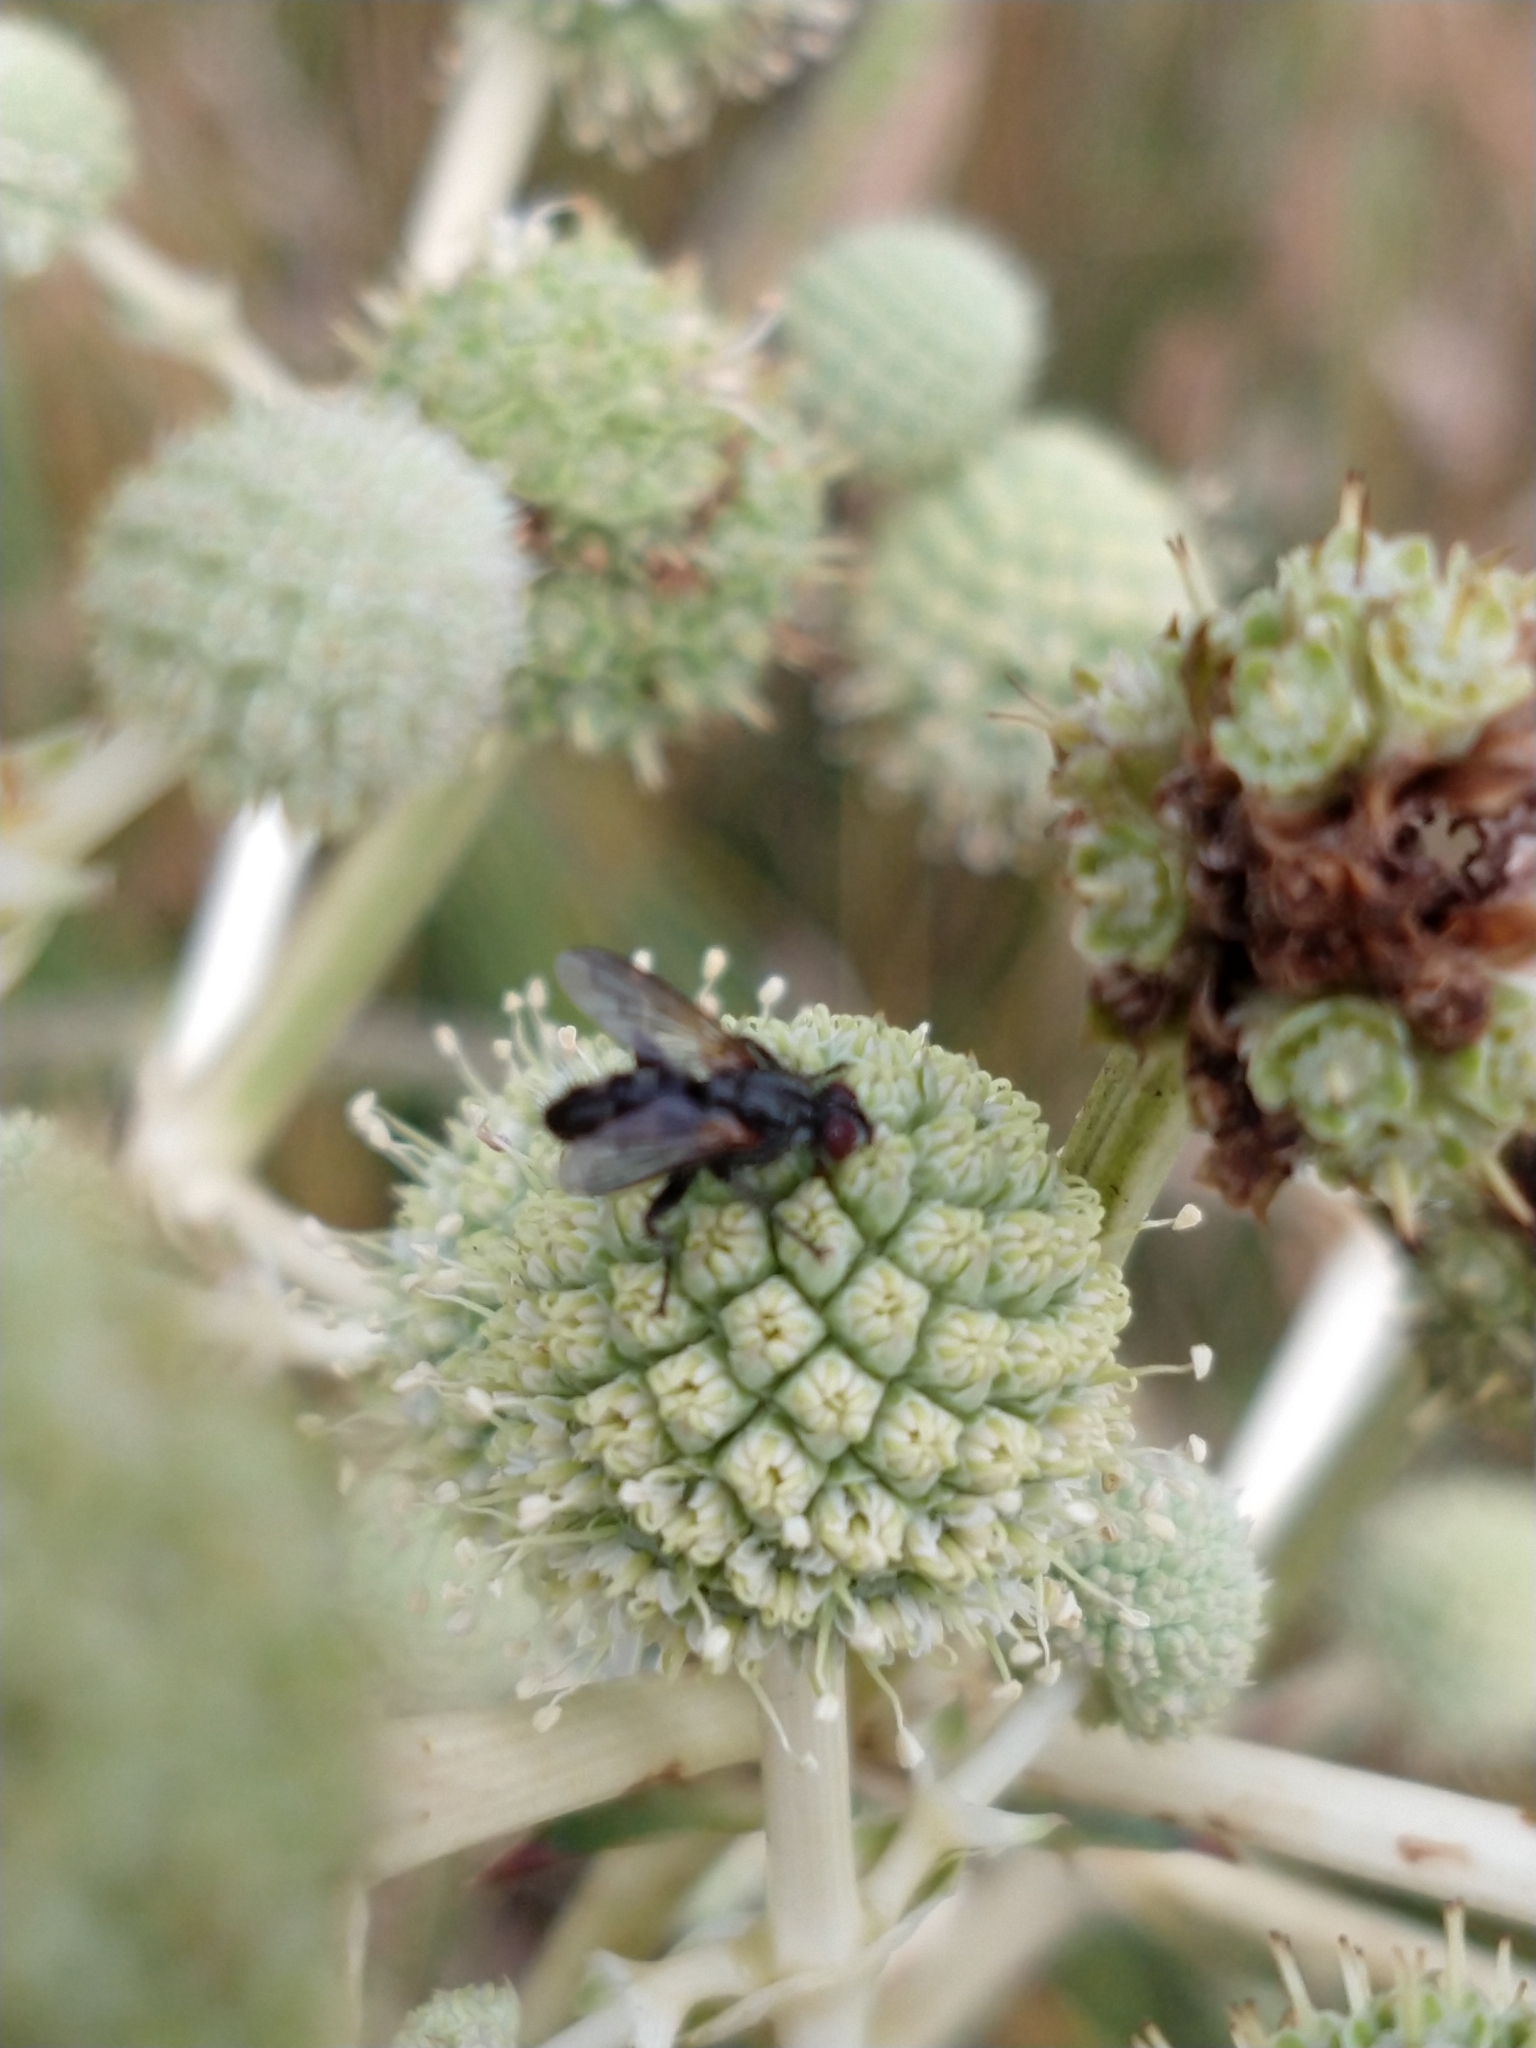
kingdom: Animalia
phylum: Arthropoda
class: Insecta
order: Diptera
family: Calliphoridae
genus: Stevenia
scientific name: Stevenia deceptoria
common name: Grizzled woodlouse-fly
